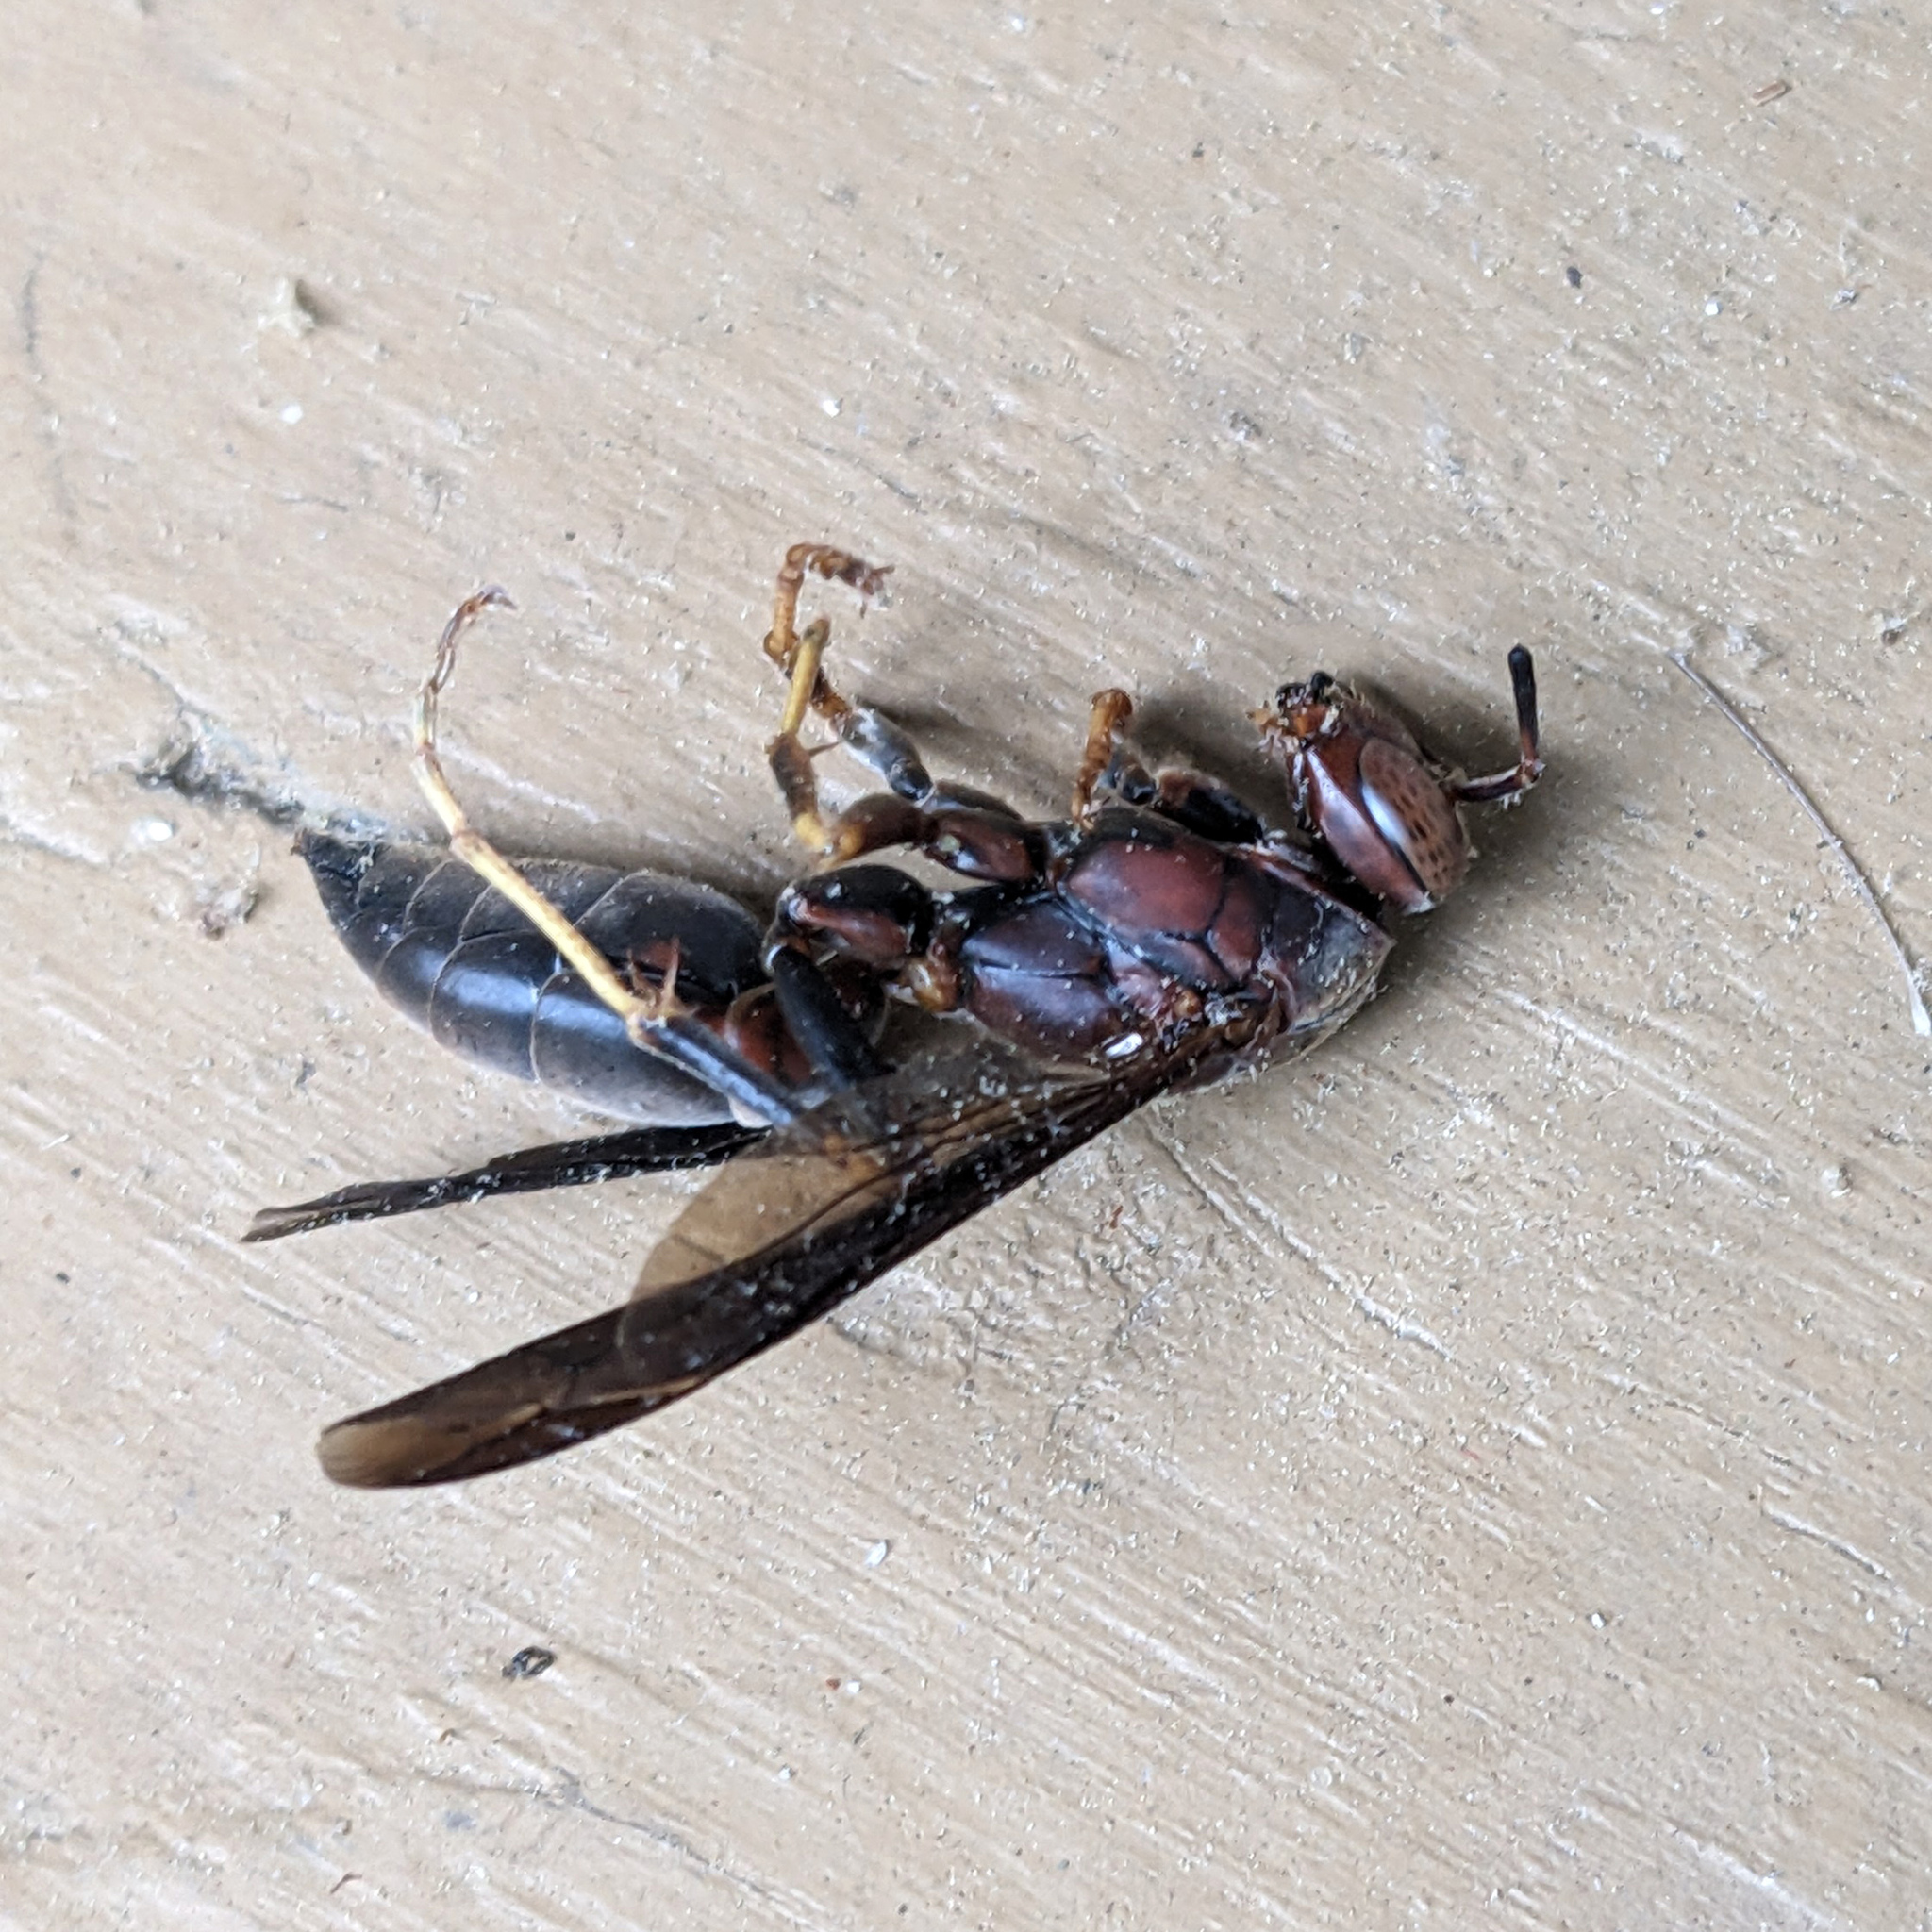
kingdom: Animalia
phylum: Arthropoda
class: Insecta
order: Hymenoptera
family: Eumenidae
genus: Polistes
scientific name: Polistes metricus
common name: Metric paper wasp
